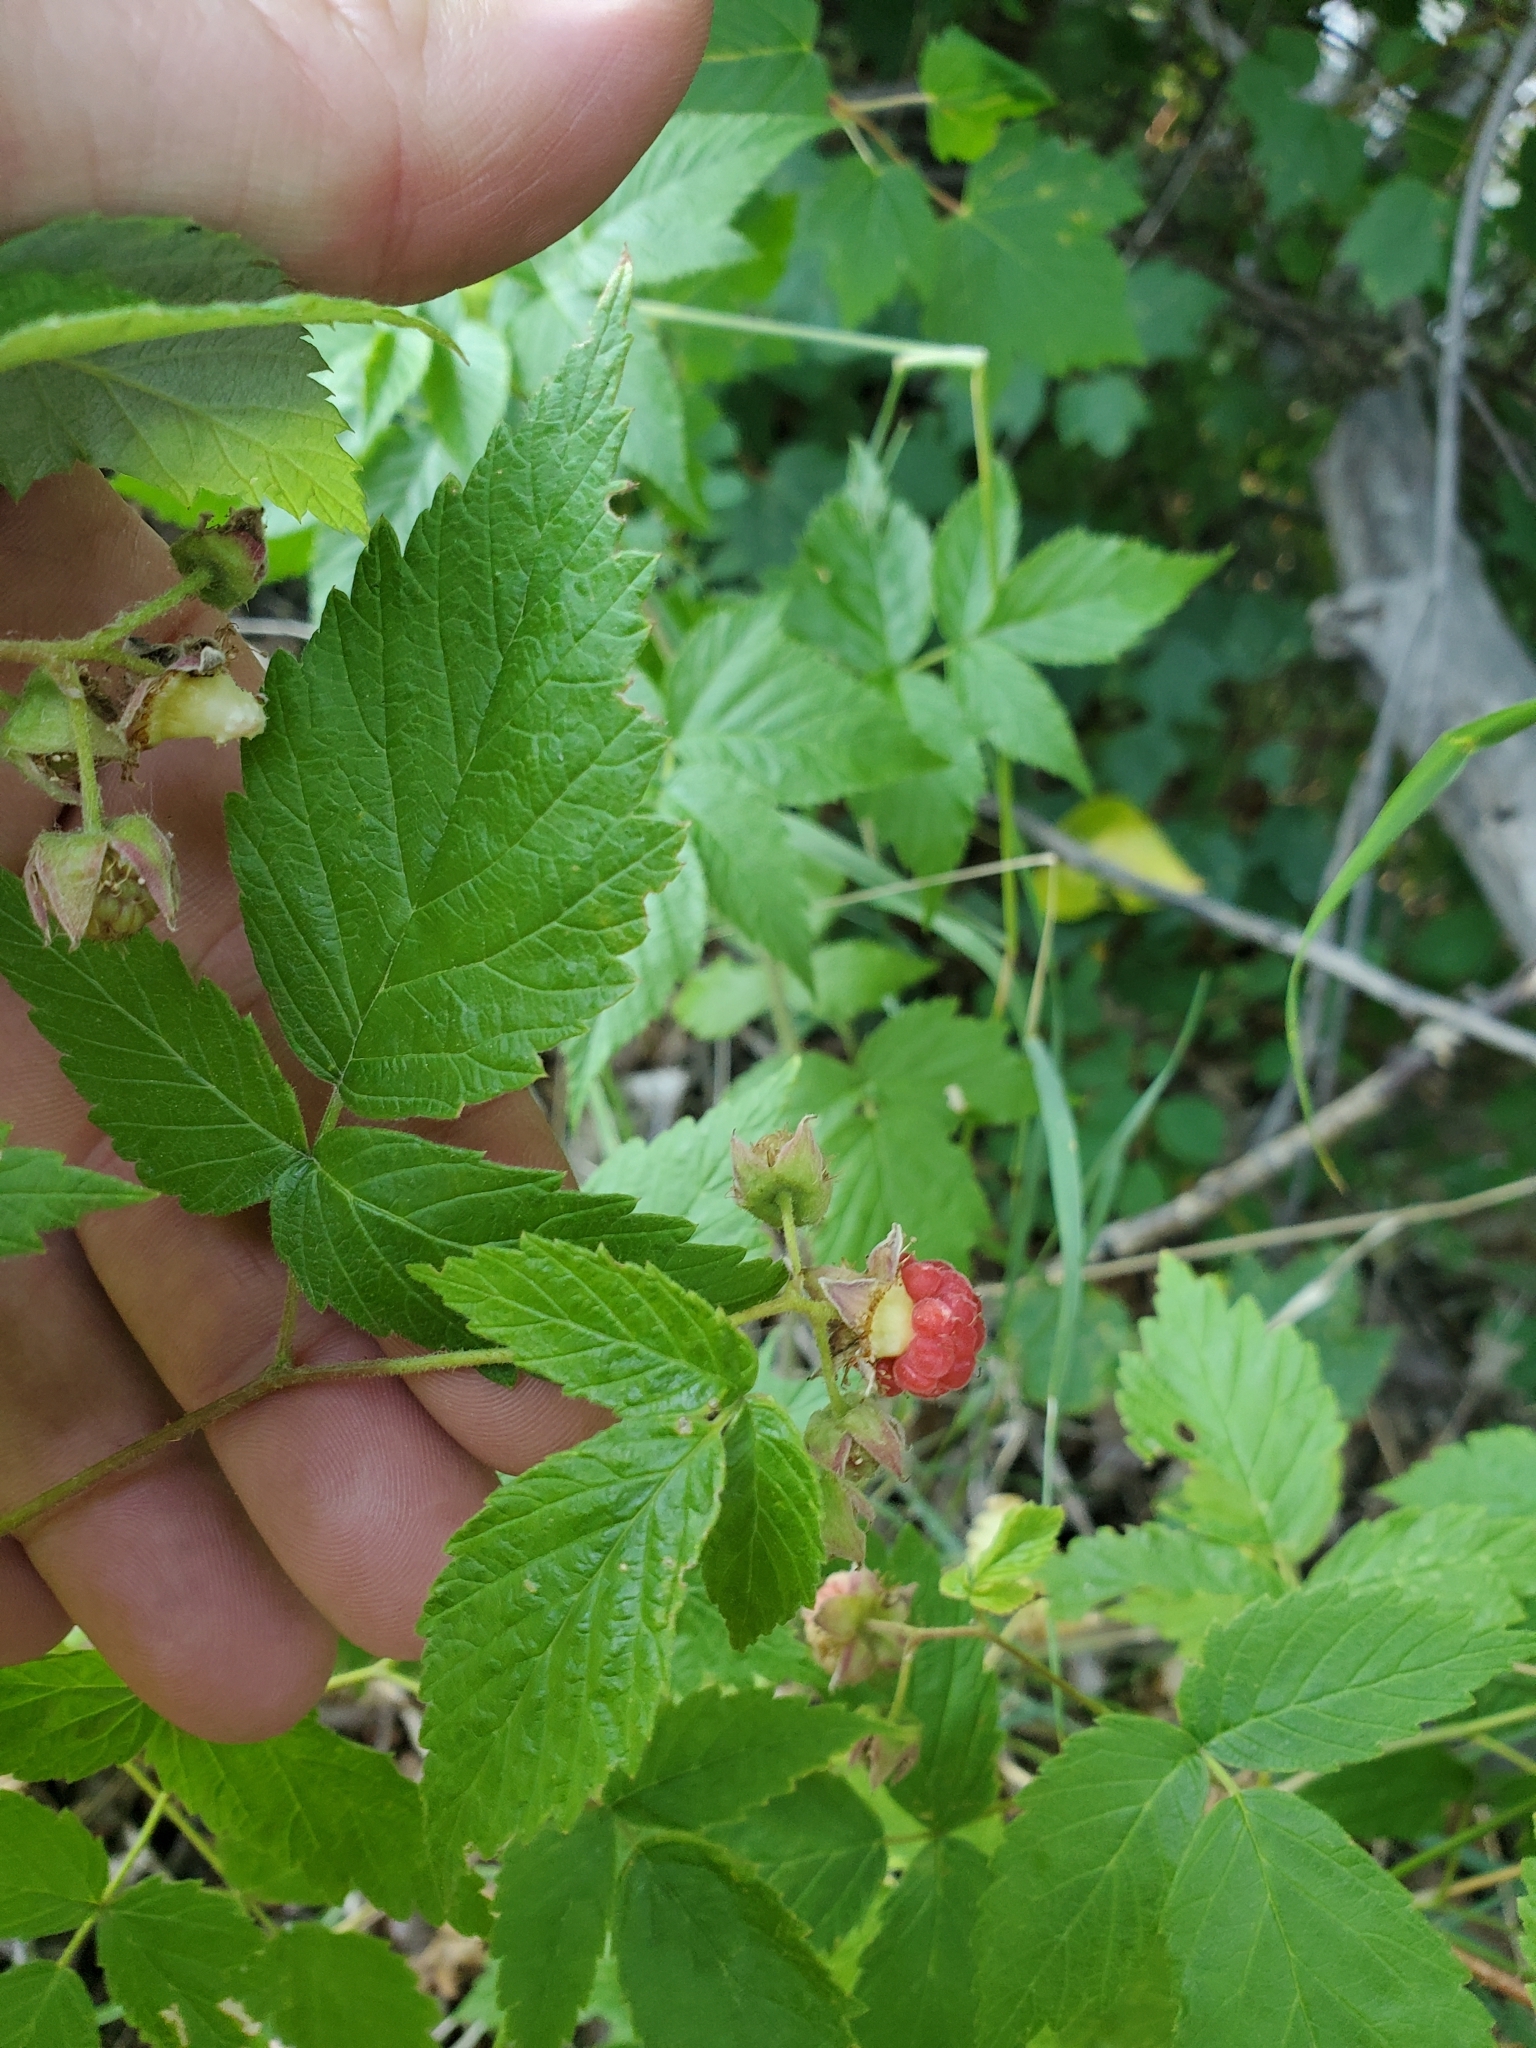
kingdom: Plantae
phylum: Tracheophyta
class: Magnoliopsida
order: Rosales
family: Rosaceae
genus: Rubus
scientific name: Rubus idaeus
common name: Raspberry
